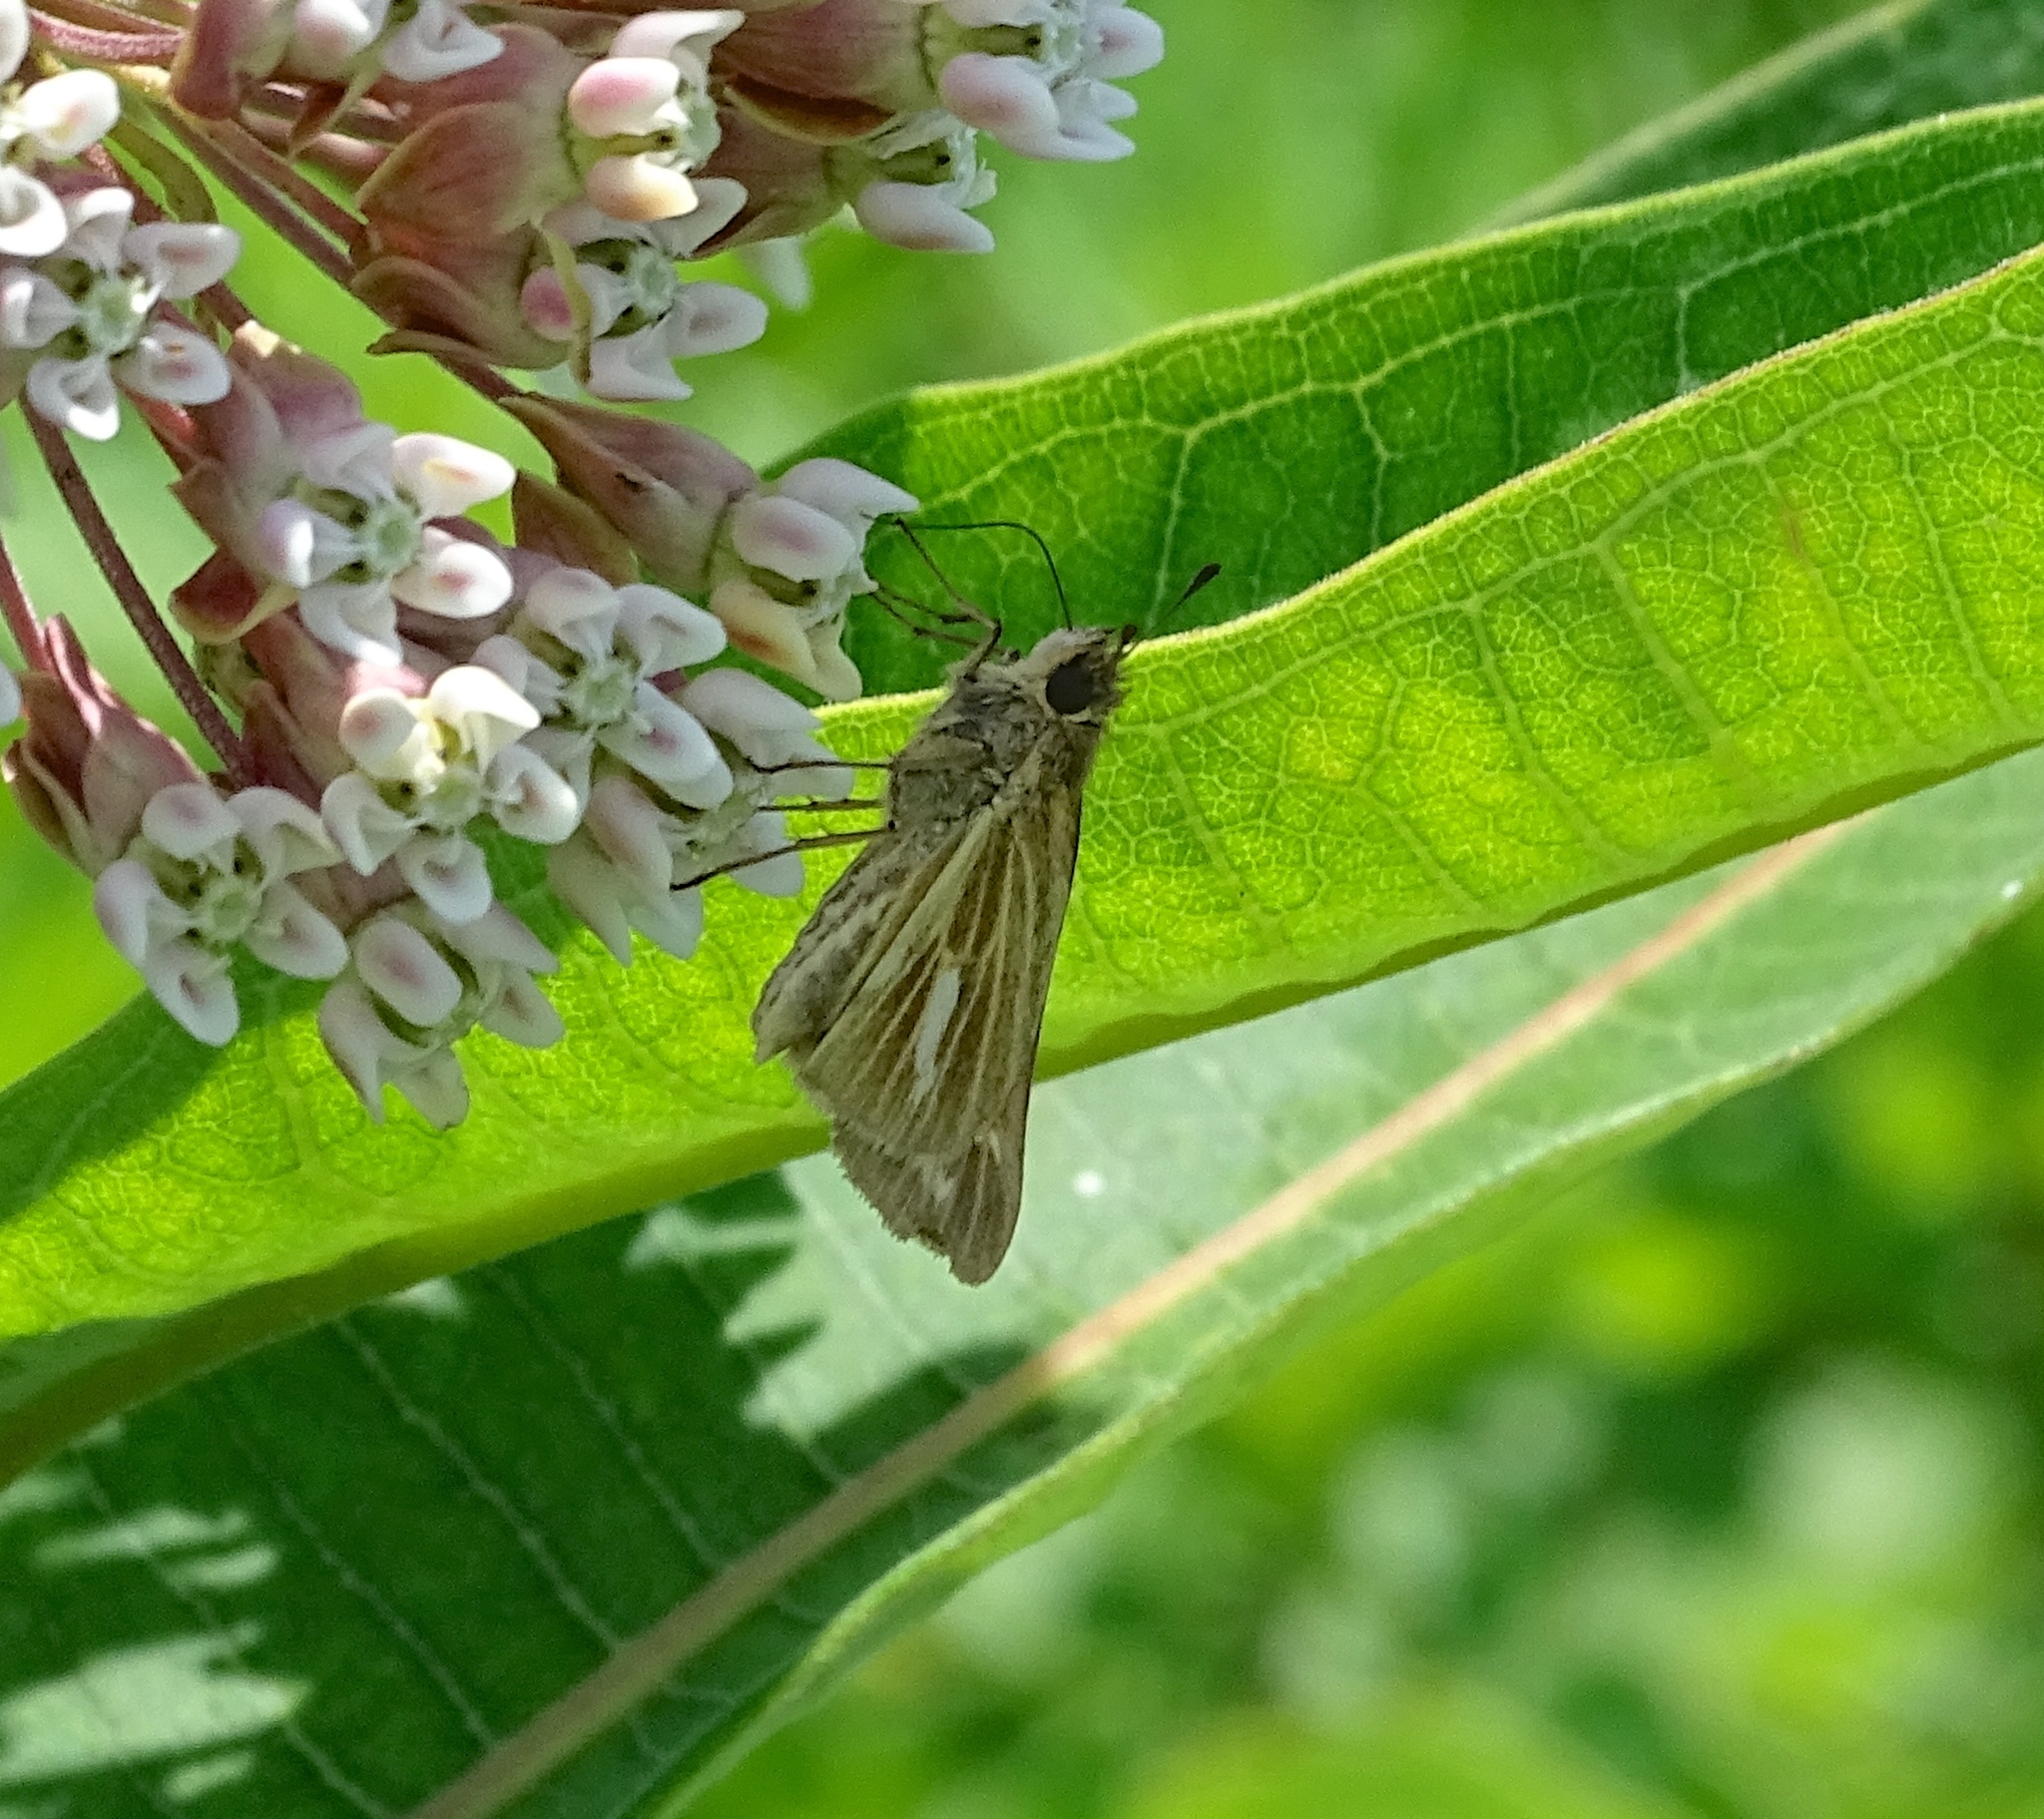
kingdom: Animalia
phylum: Arthropoda
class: Insecta
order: Lepidoptera
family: Hesperiidae
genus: Panoquina
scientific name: Panoquina panoquin
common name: Salt marsh skipper
